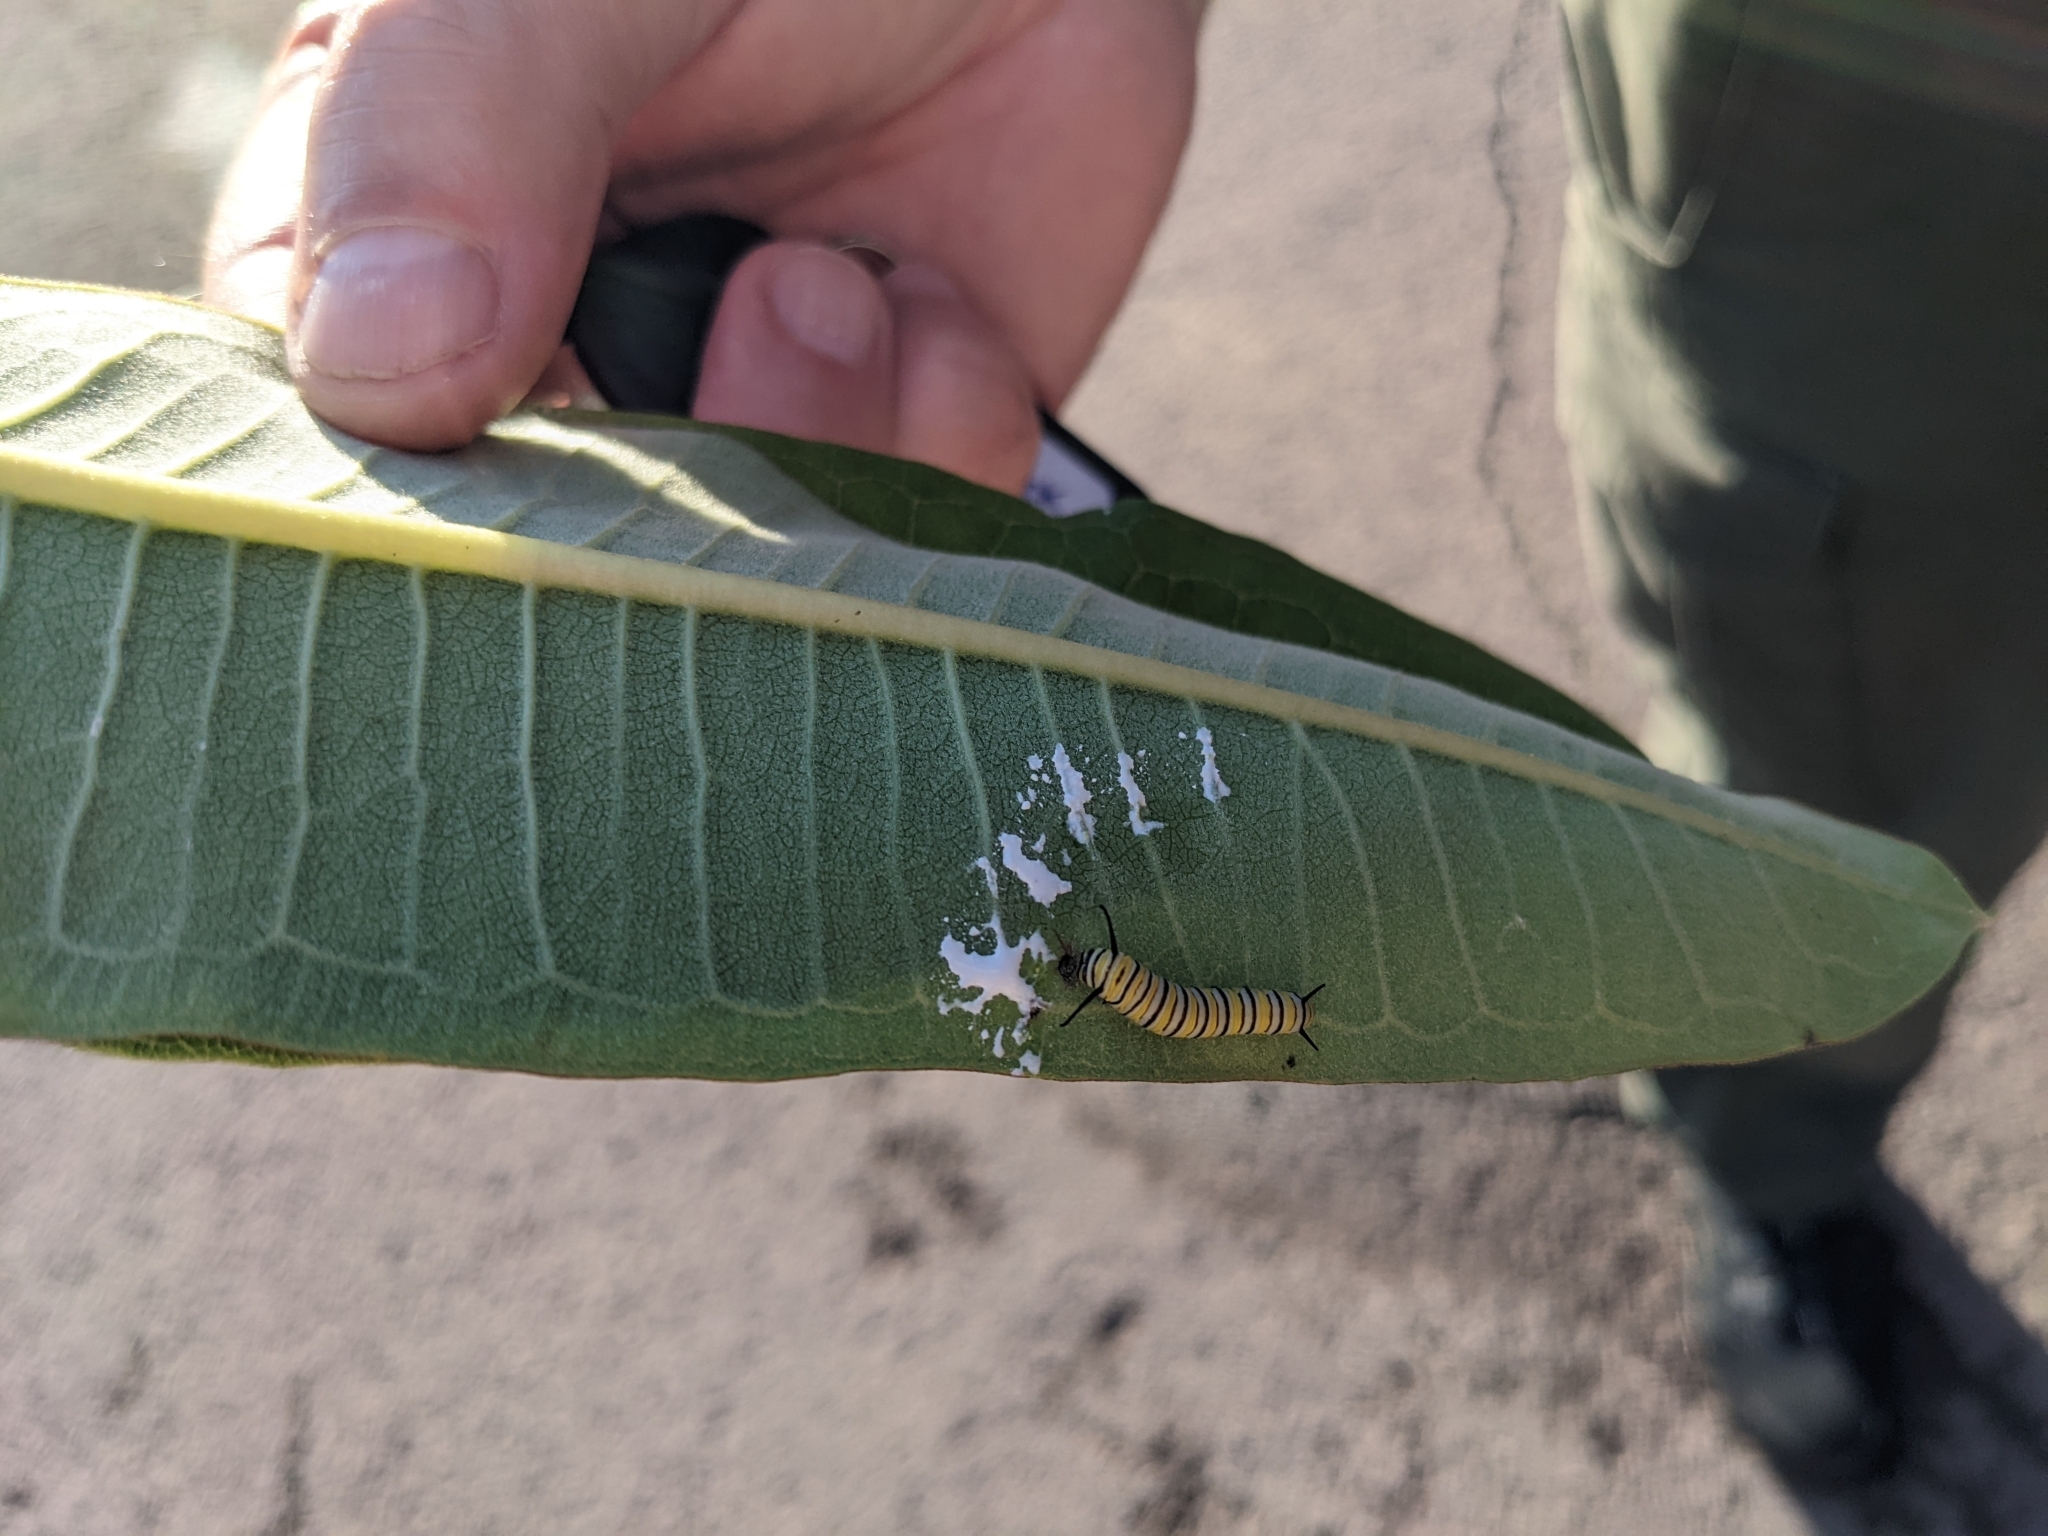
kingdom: Animalia
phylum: Arthropoda
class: Insecta
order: Lepidoptera
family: Nymphalidae
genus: Danaus
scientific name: Danaus plexippus
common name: Monarch
